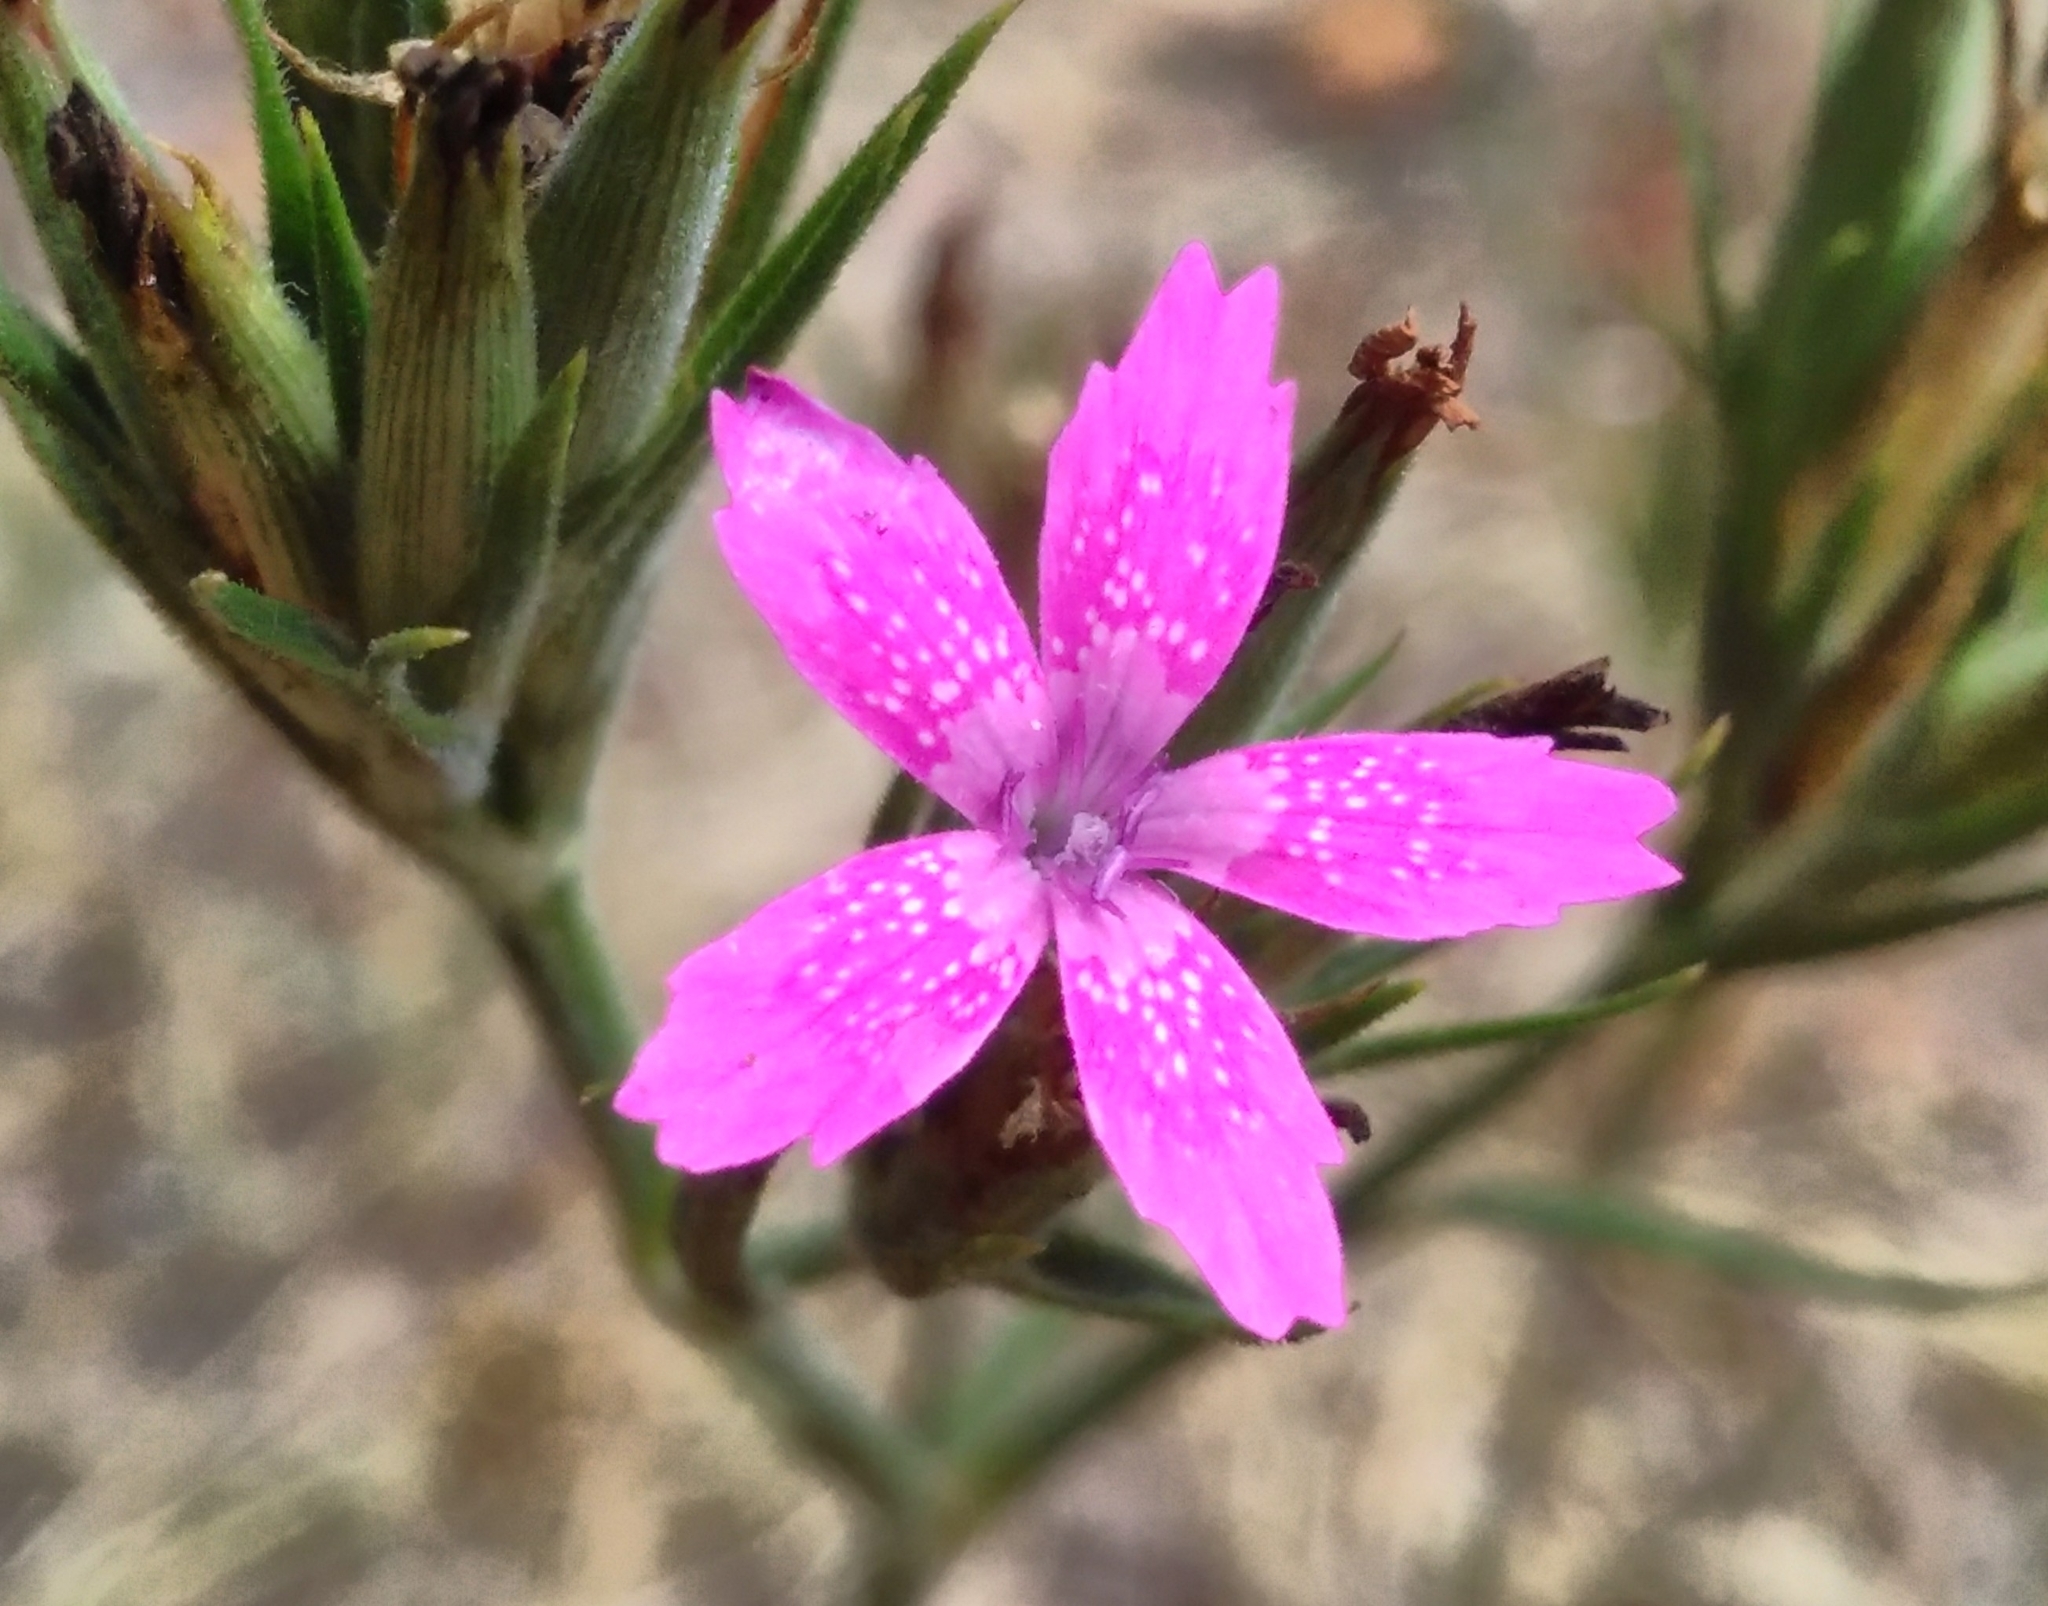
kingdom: Plantae
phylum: Tracheophyta
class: Magnoliopsida
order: Caryophyllales
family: Caryophyllaceae
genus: Dianthus
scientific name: Dianthus armeria
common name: Deptford pink
